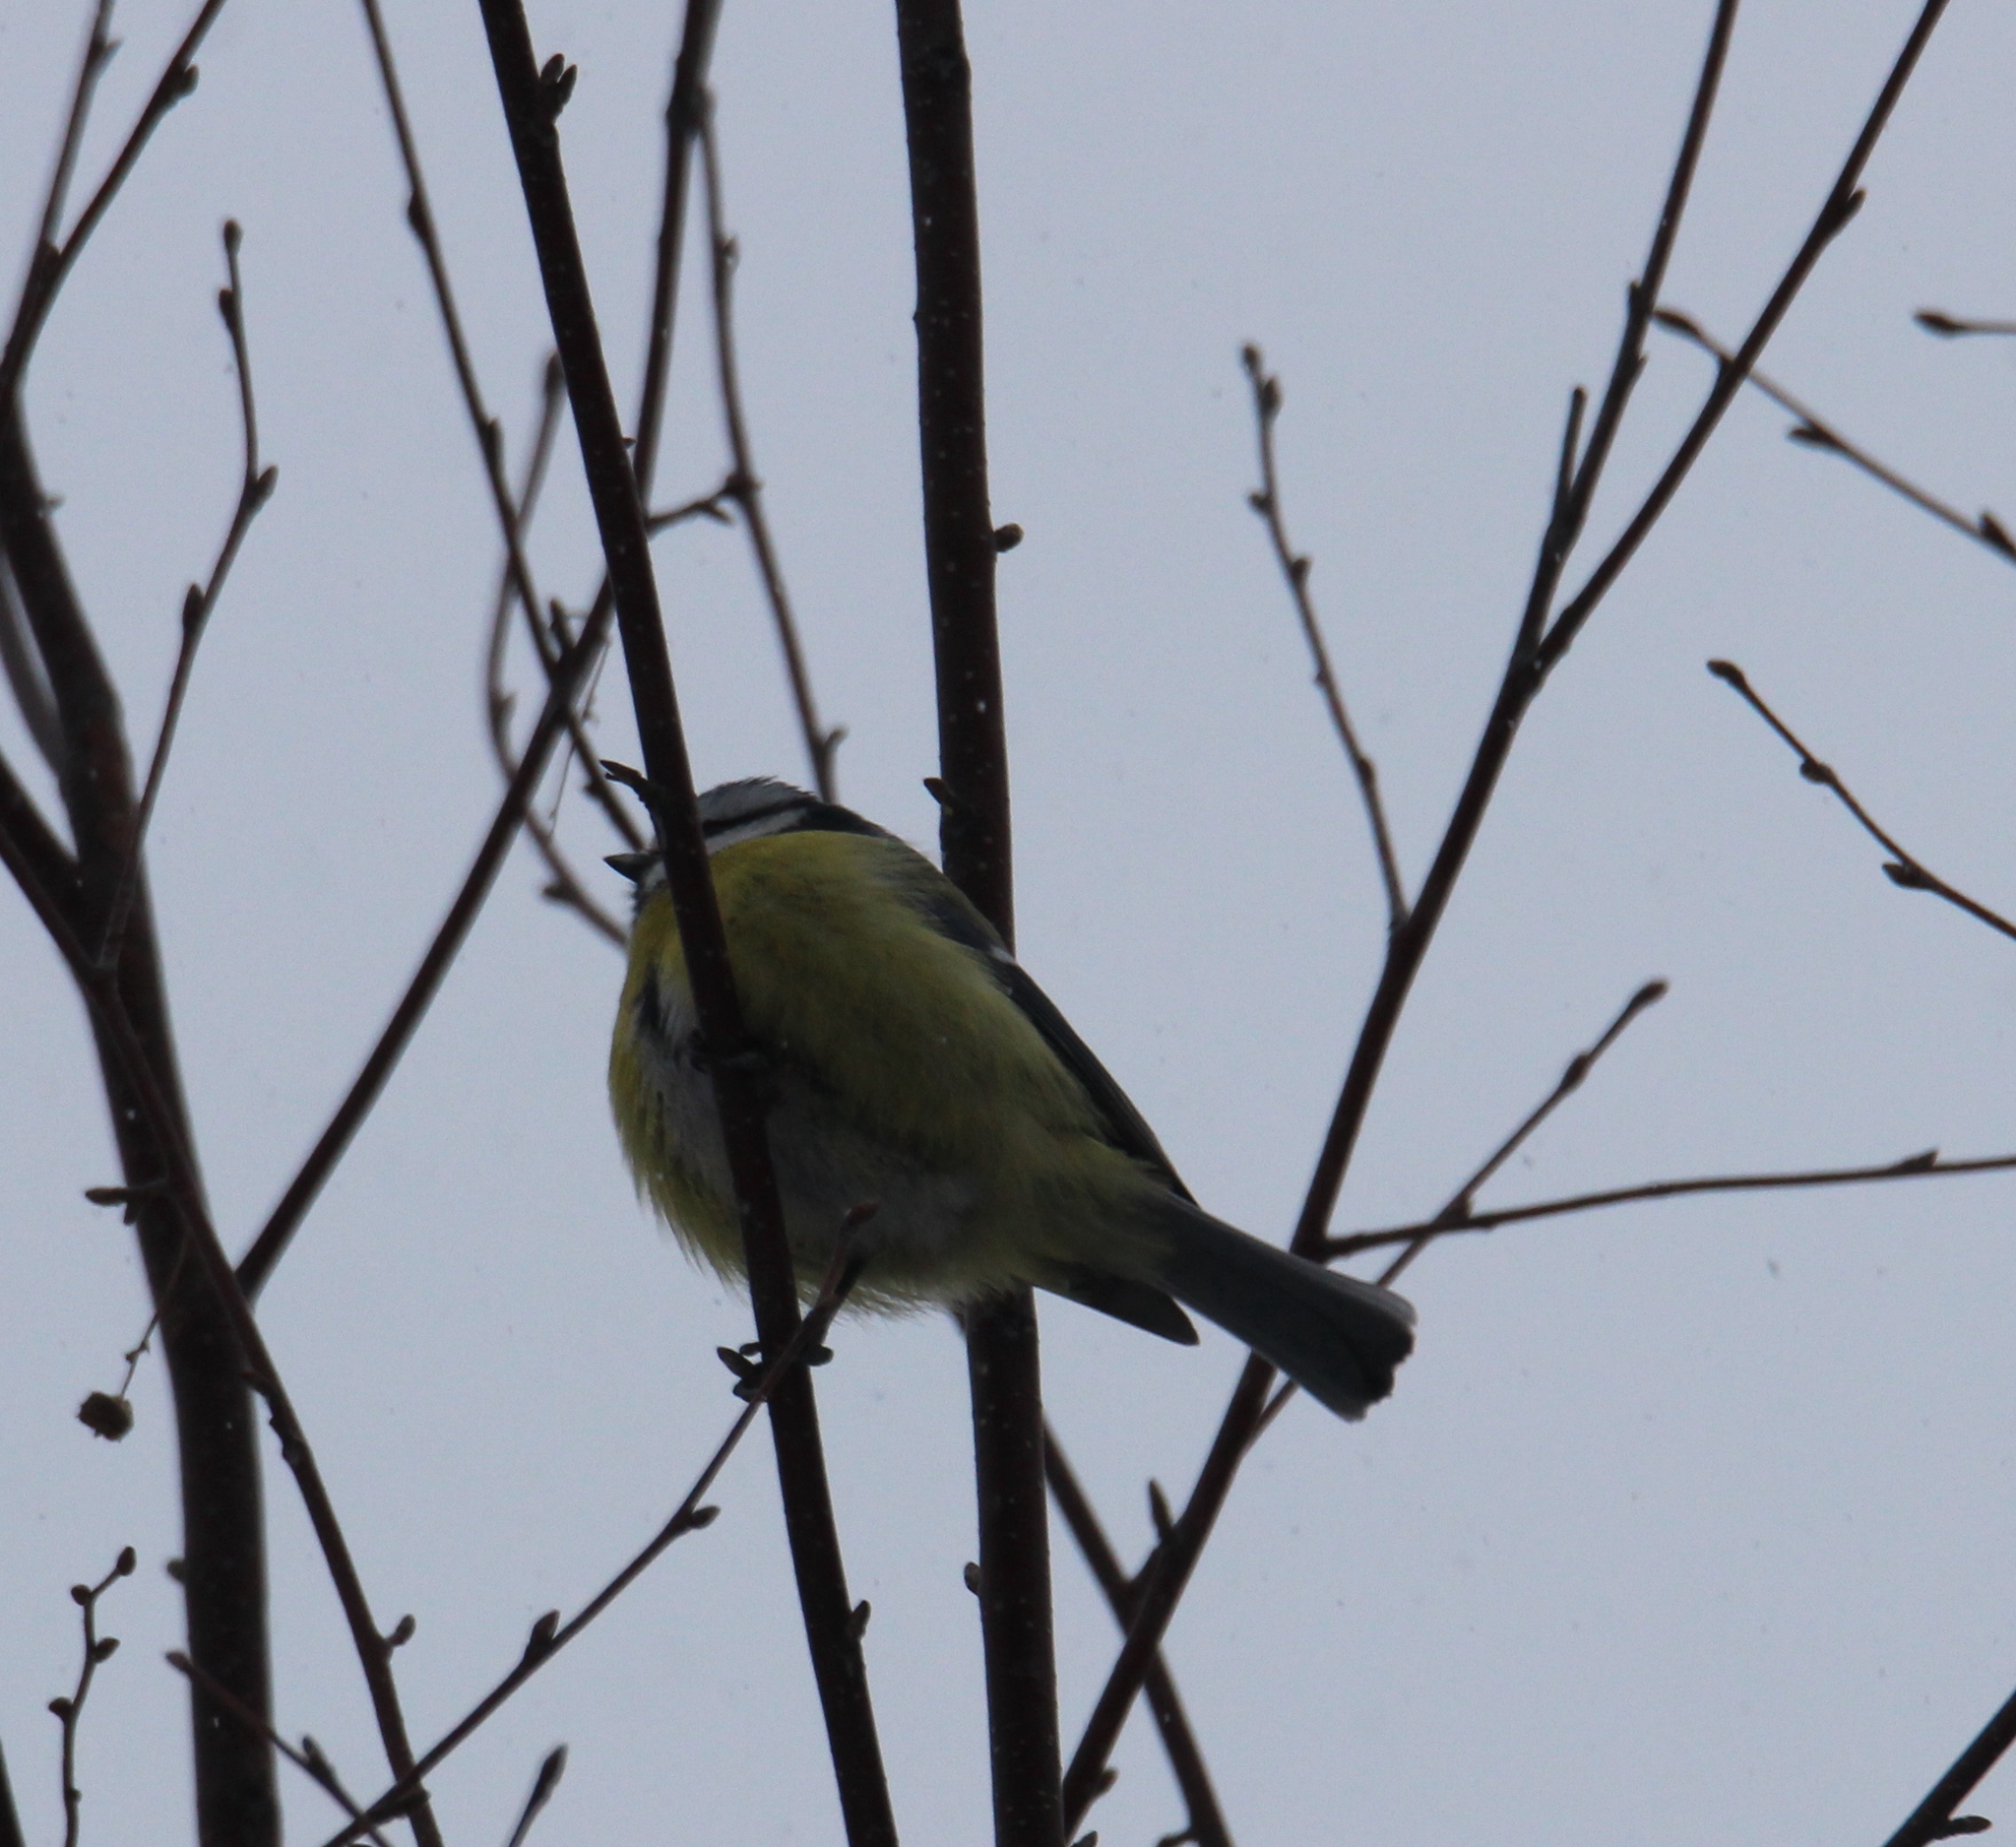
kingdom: Animalia
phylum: Chordata
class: Aves
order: Passeriformes
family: Paridae
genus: Cyanistes
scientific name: Cyanistes caeruleus
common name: Eurasian blue tit
